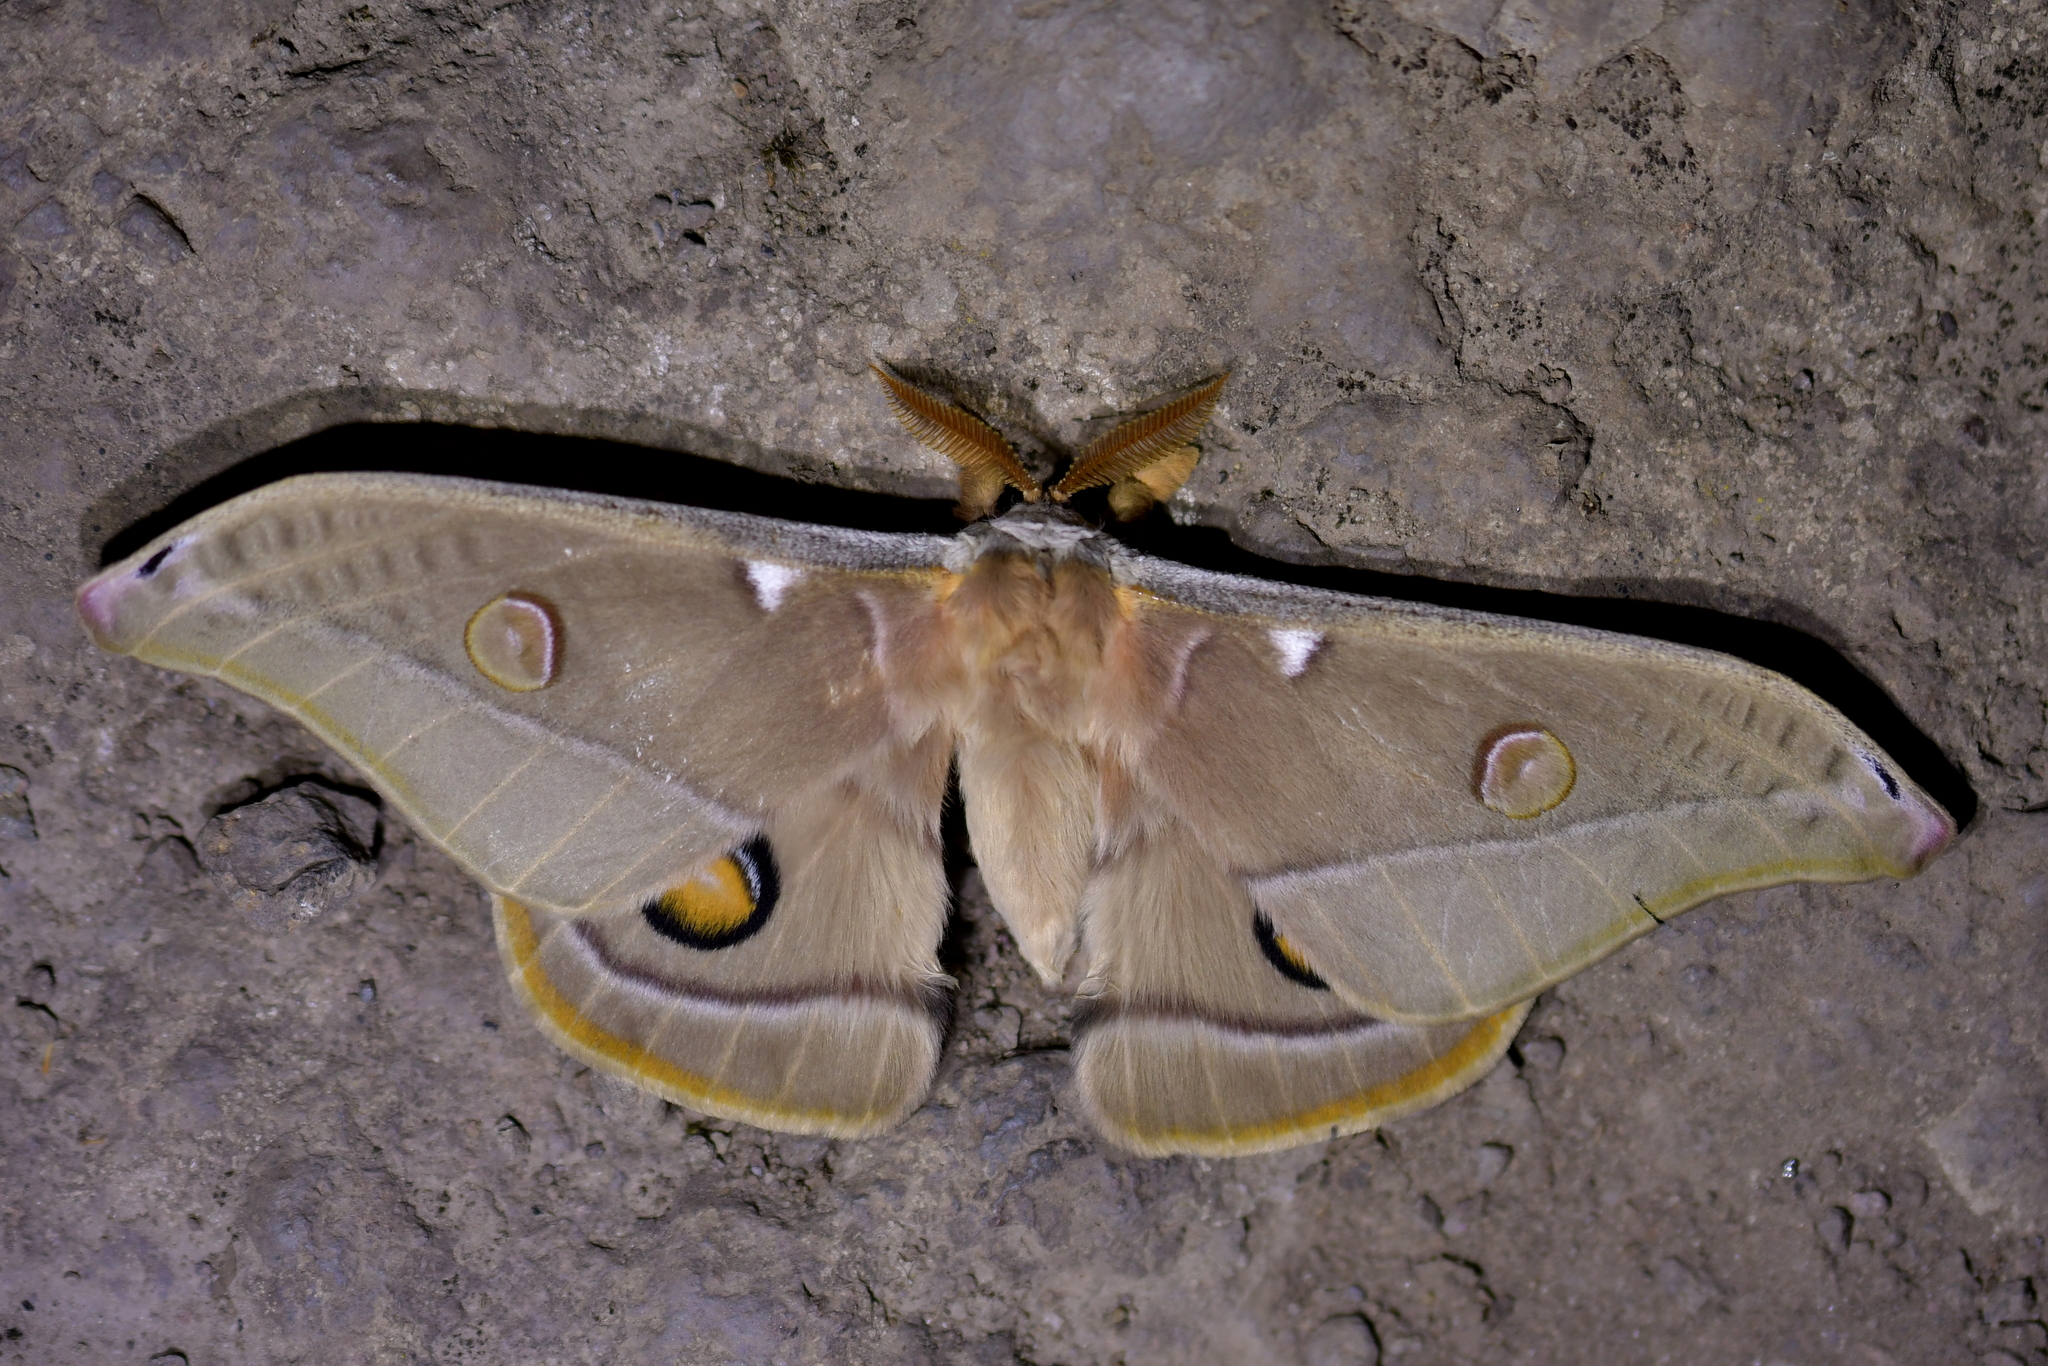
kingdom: Animalia
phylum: Arthropoda
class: Insecta
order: Lepidoptera
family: Saturniidae
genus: Opodiphthera
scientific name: Opodiphthera
